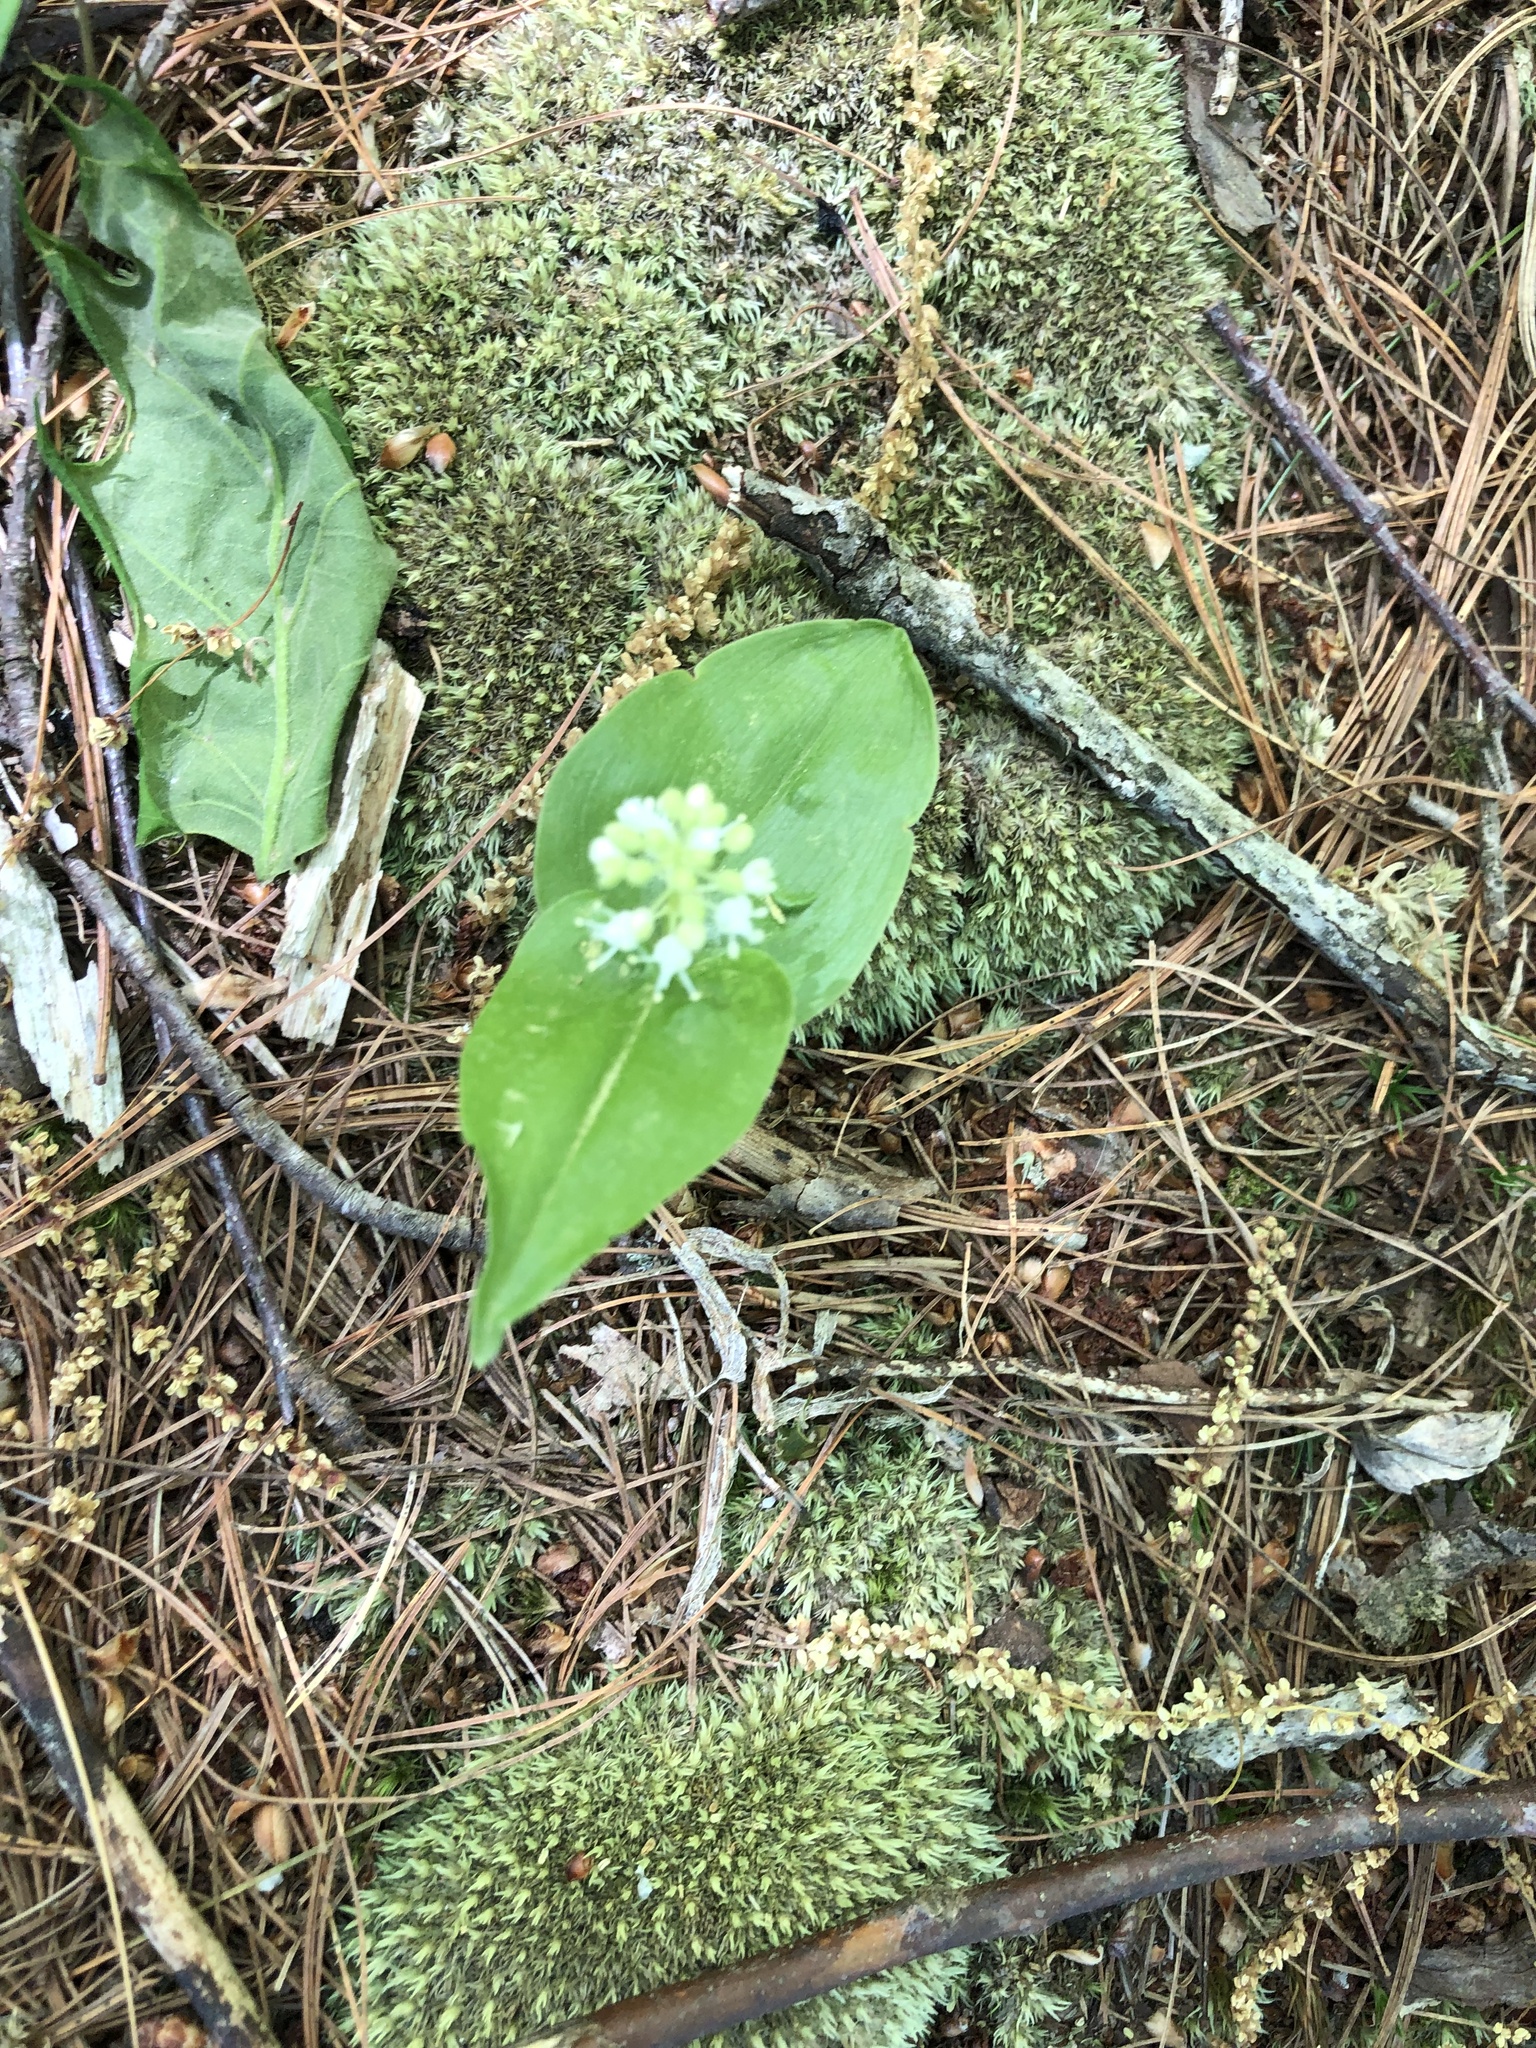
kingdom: Plantae
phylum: Tracheophyta
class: Liliopsida
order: Asparagales
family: Asparagaceae
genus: Maianthemum
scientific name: Maianthemum canadense
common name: False lily-of-the-valley
